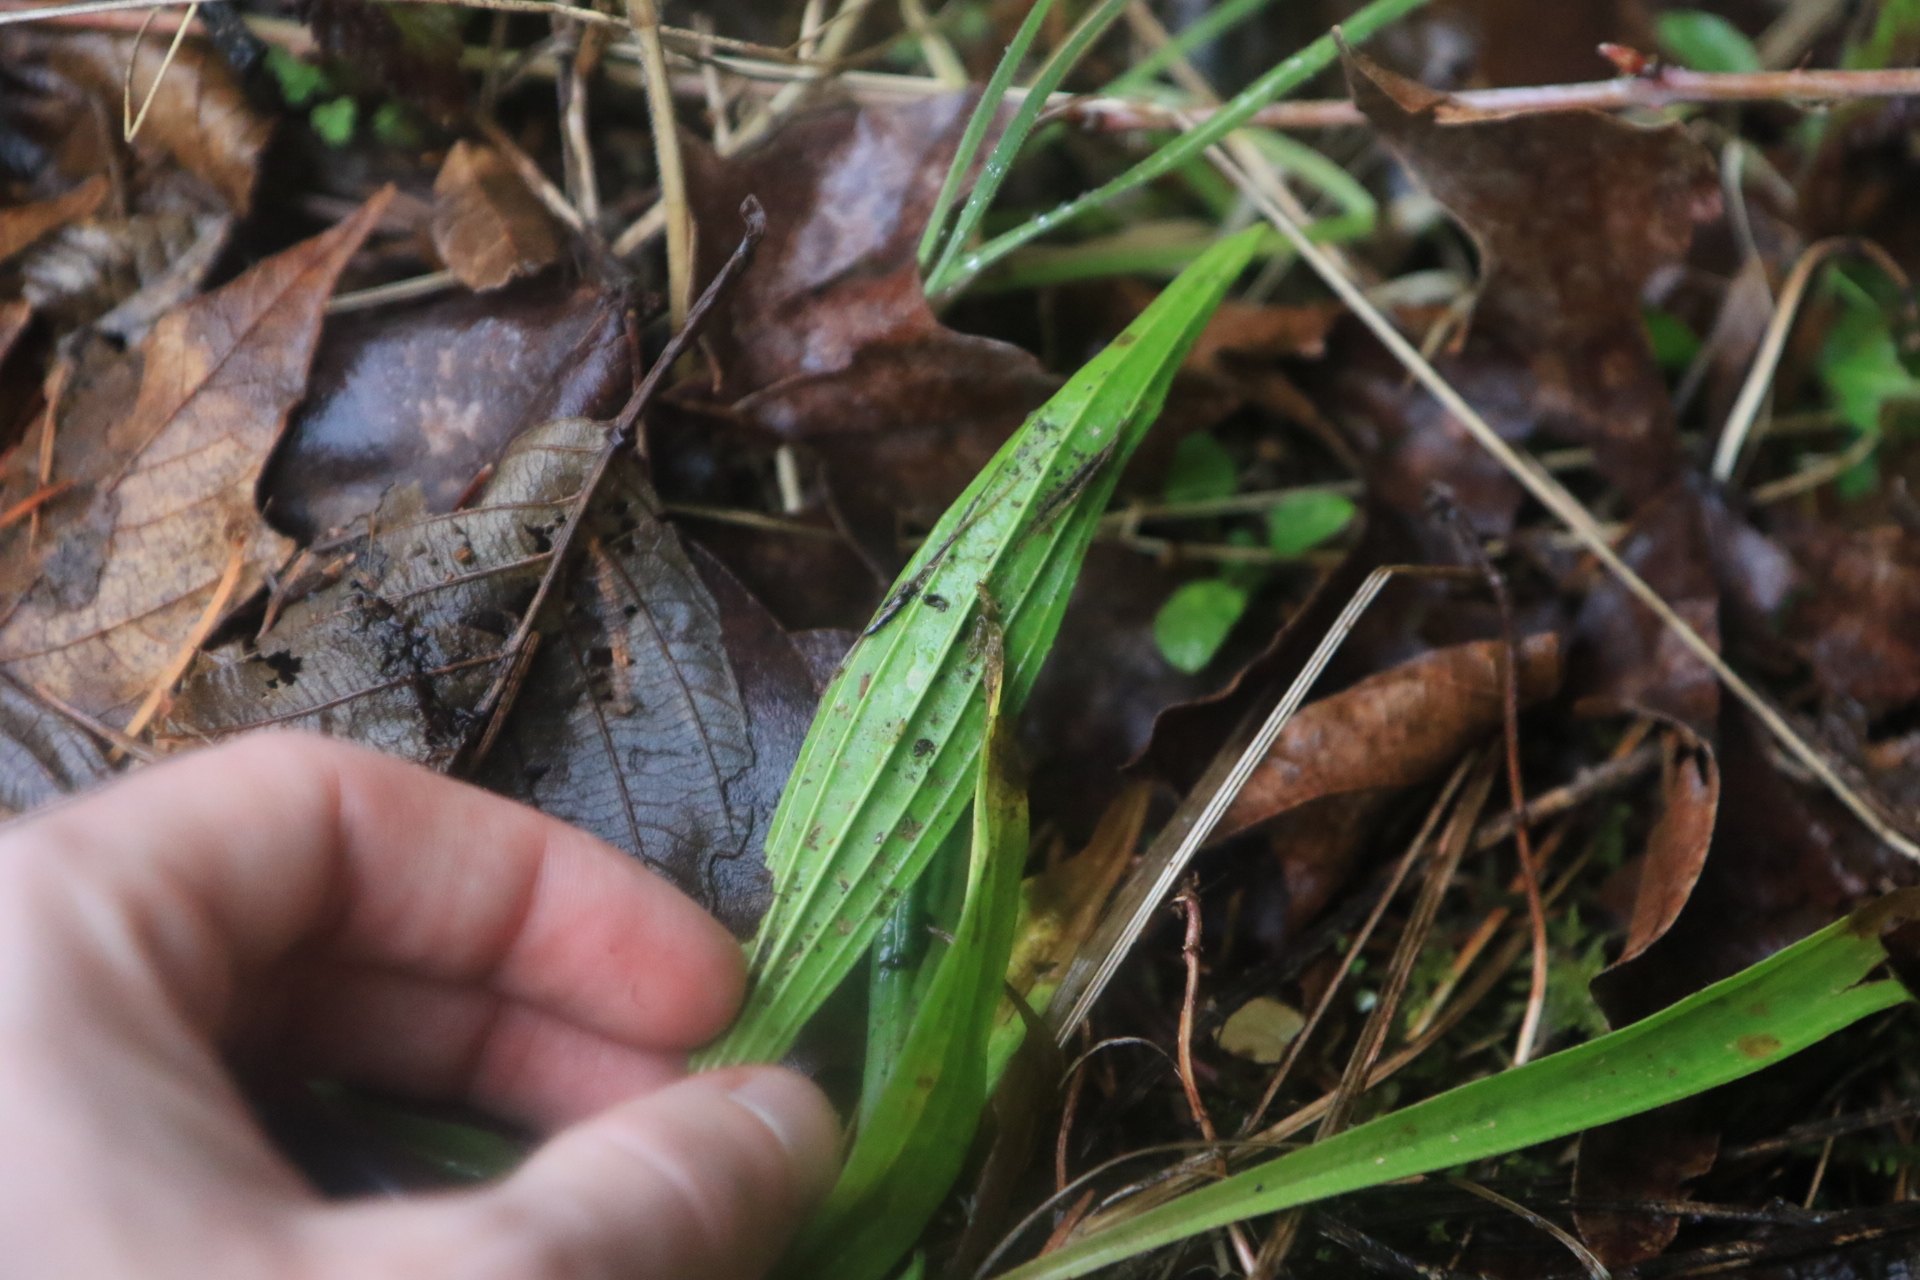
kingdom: Plantae
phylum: Tracheophyta
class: Magnoliopsida
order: Lamiales
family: Plantaginaceae
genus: Plantago
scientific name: Plantago lanceolata
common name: Ribwort plantain
